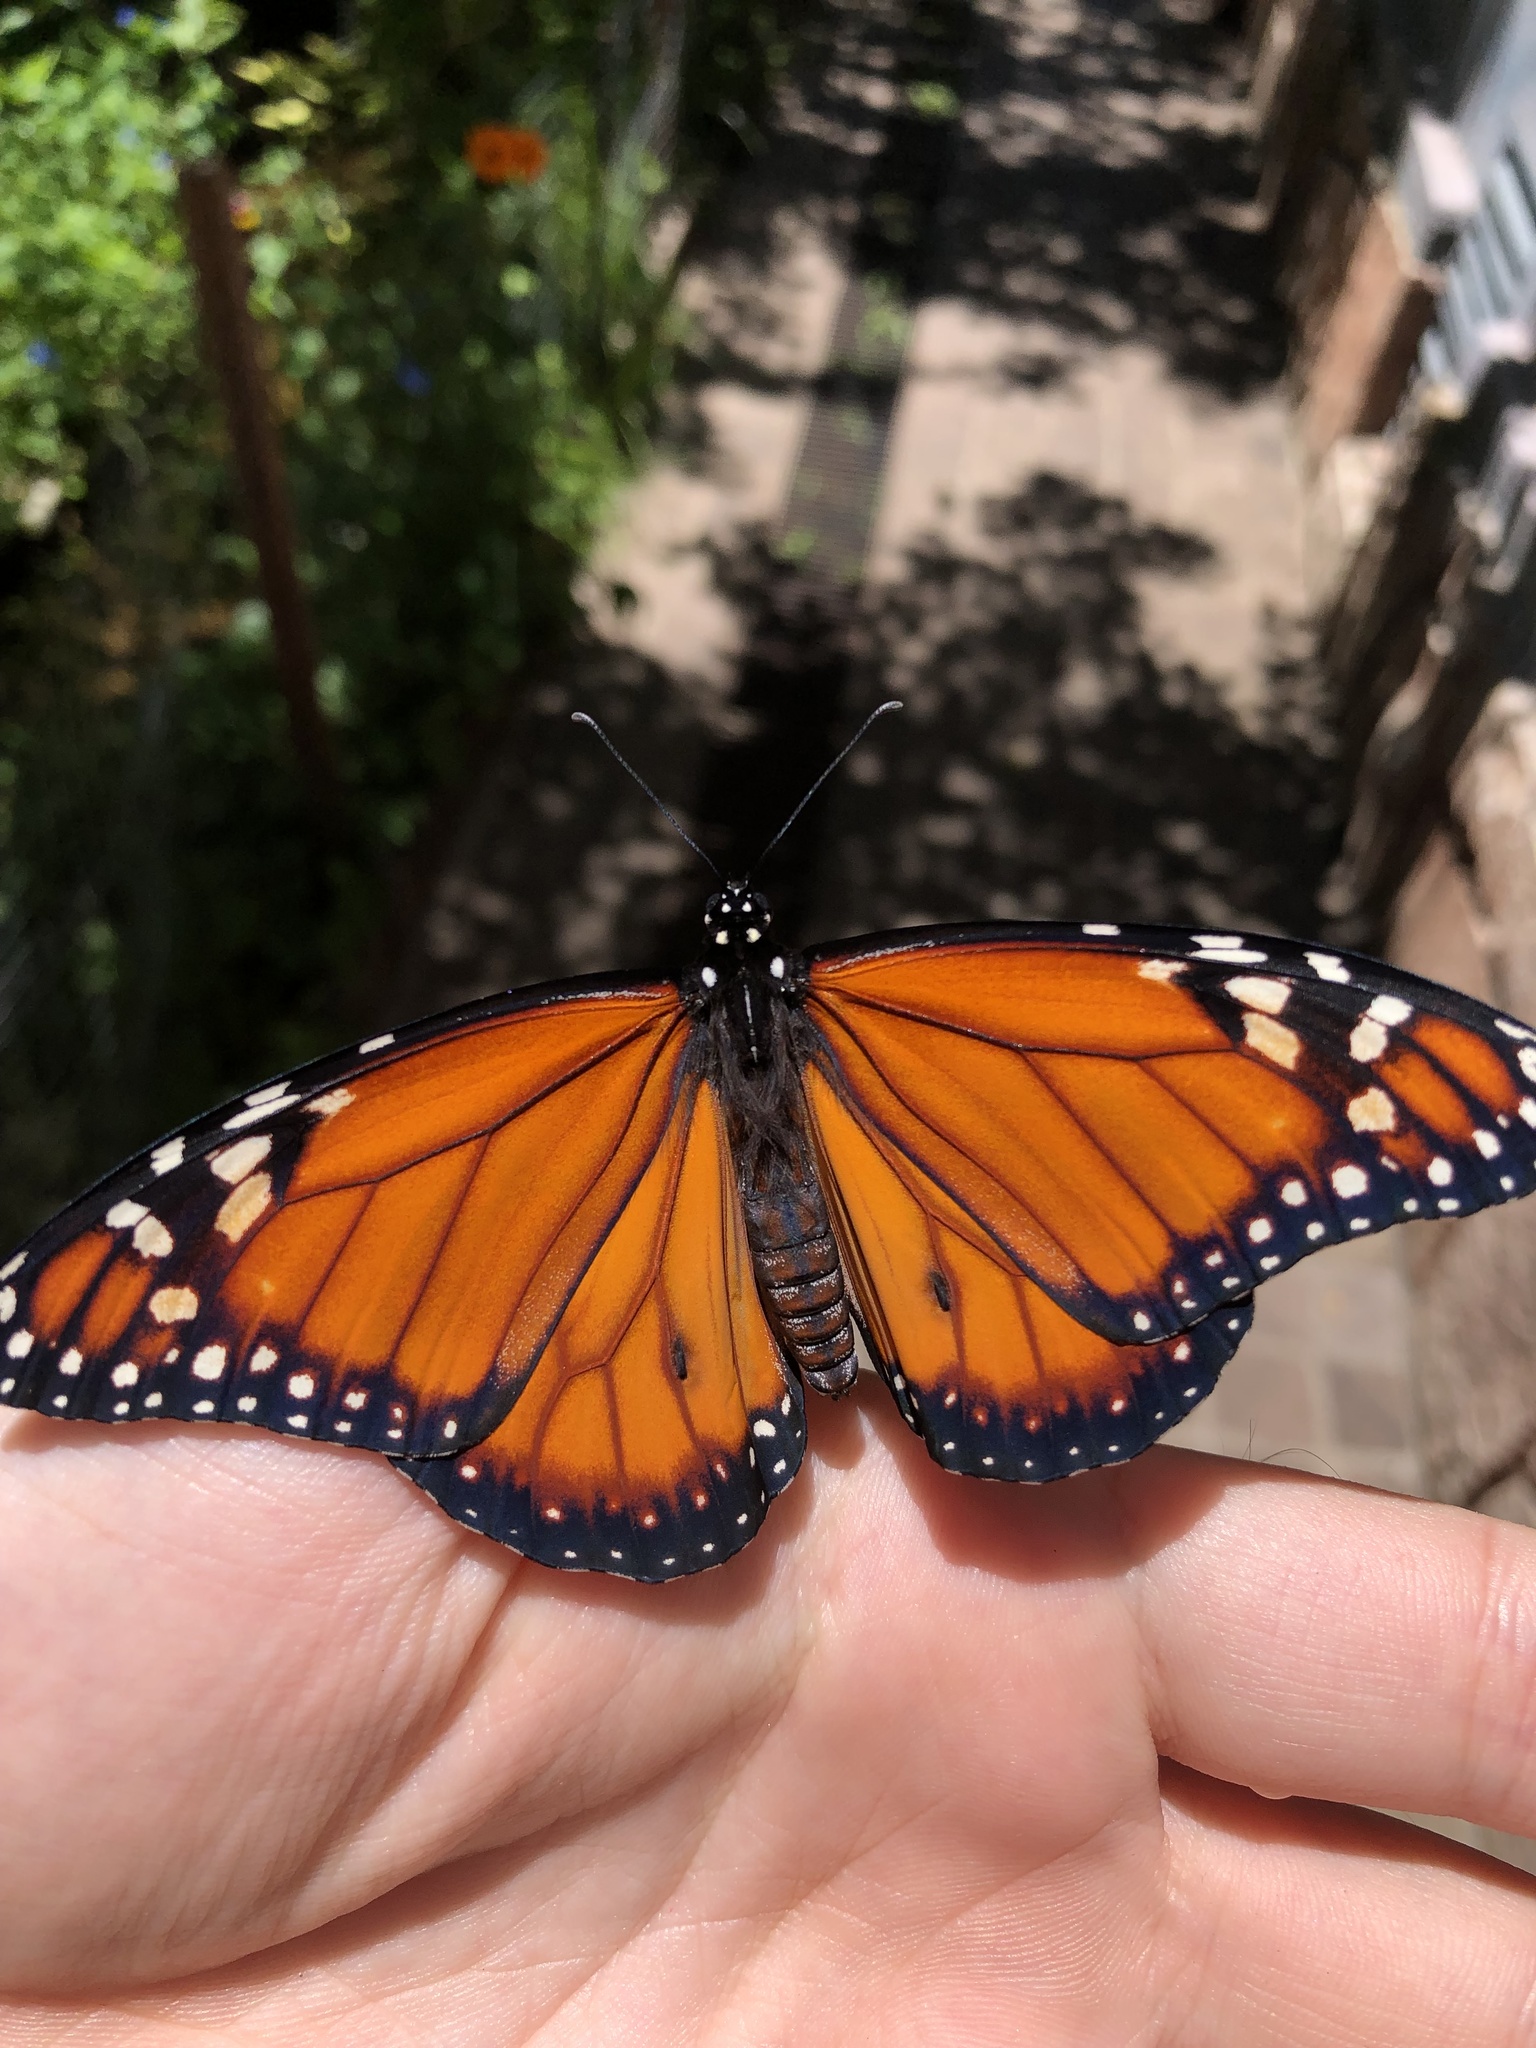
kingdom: Animalia
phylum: Arthropoda
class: Insecta
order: Lepidoptera
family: Nymphalidae
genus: Danaus
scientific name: Danaus erippus
